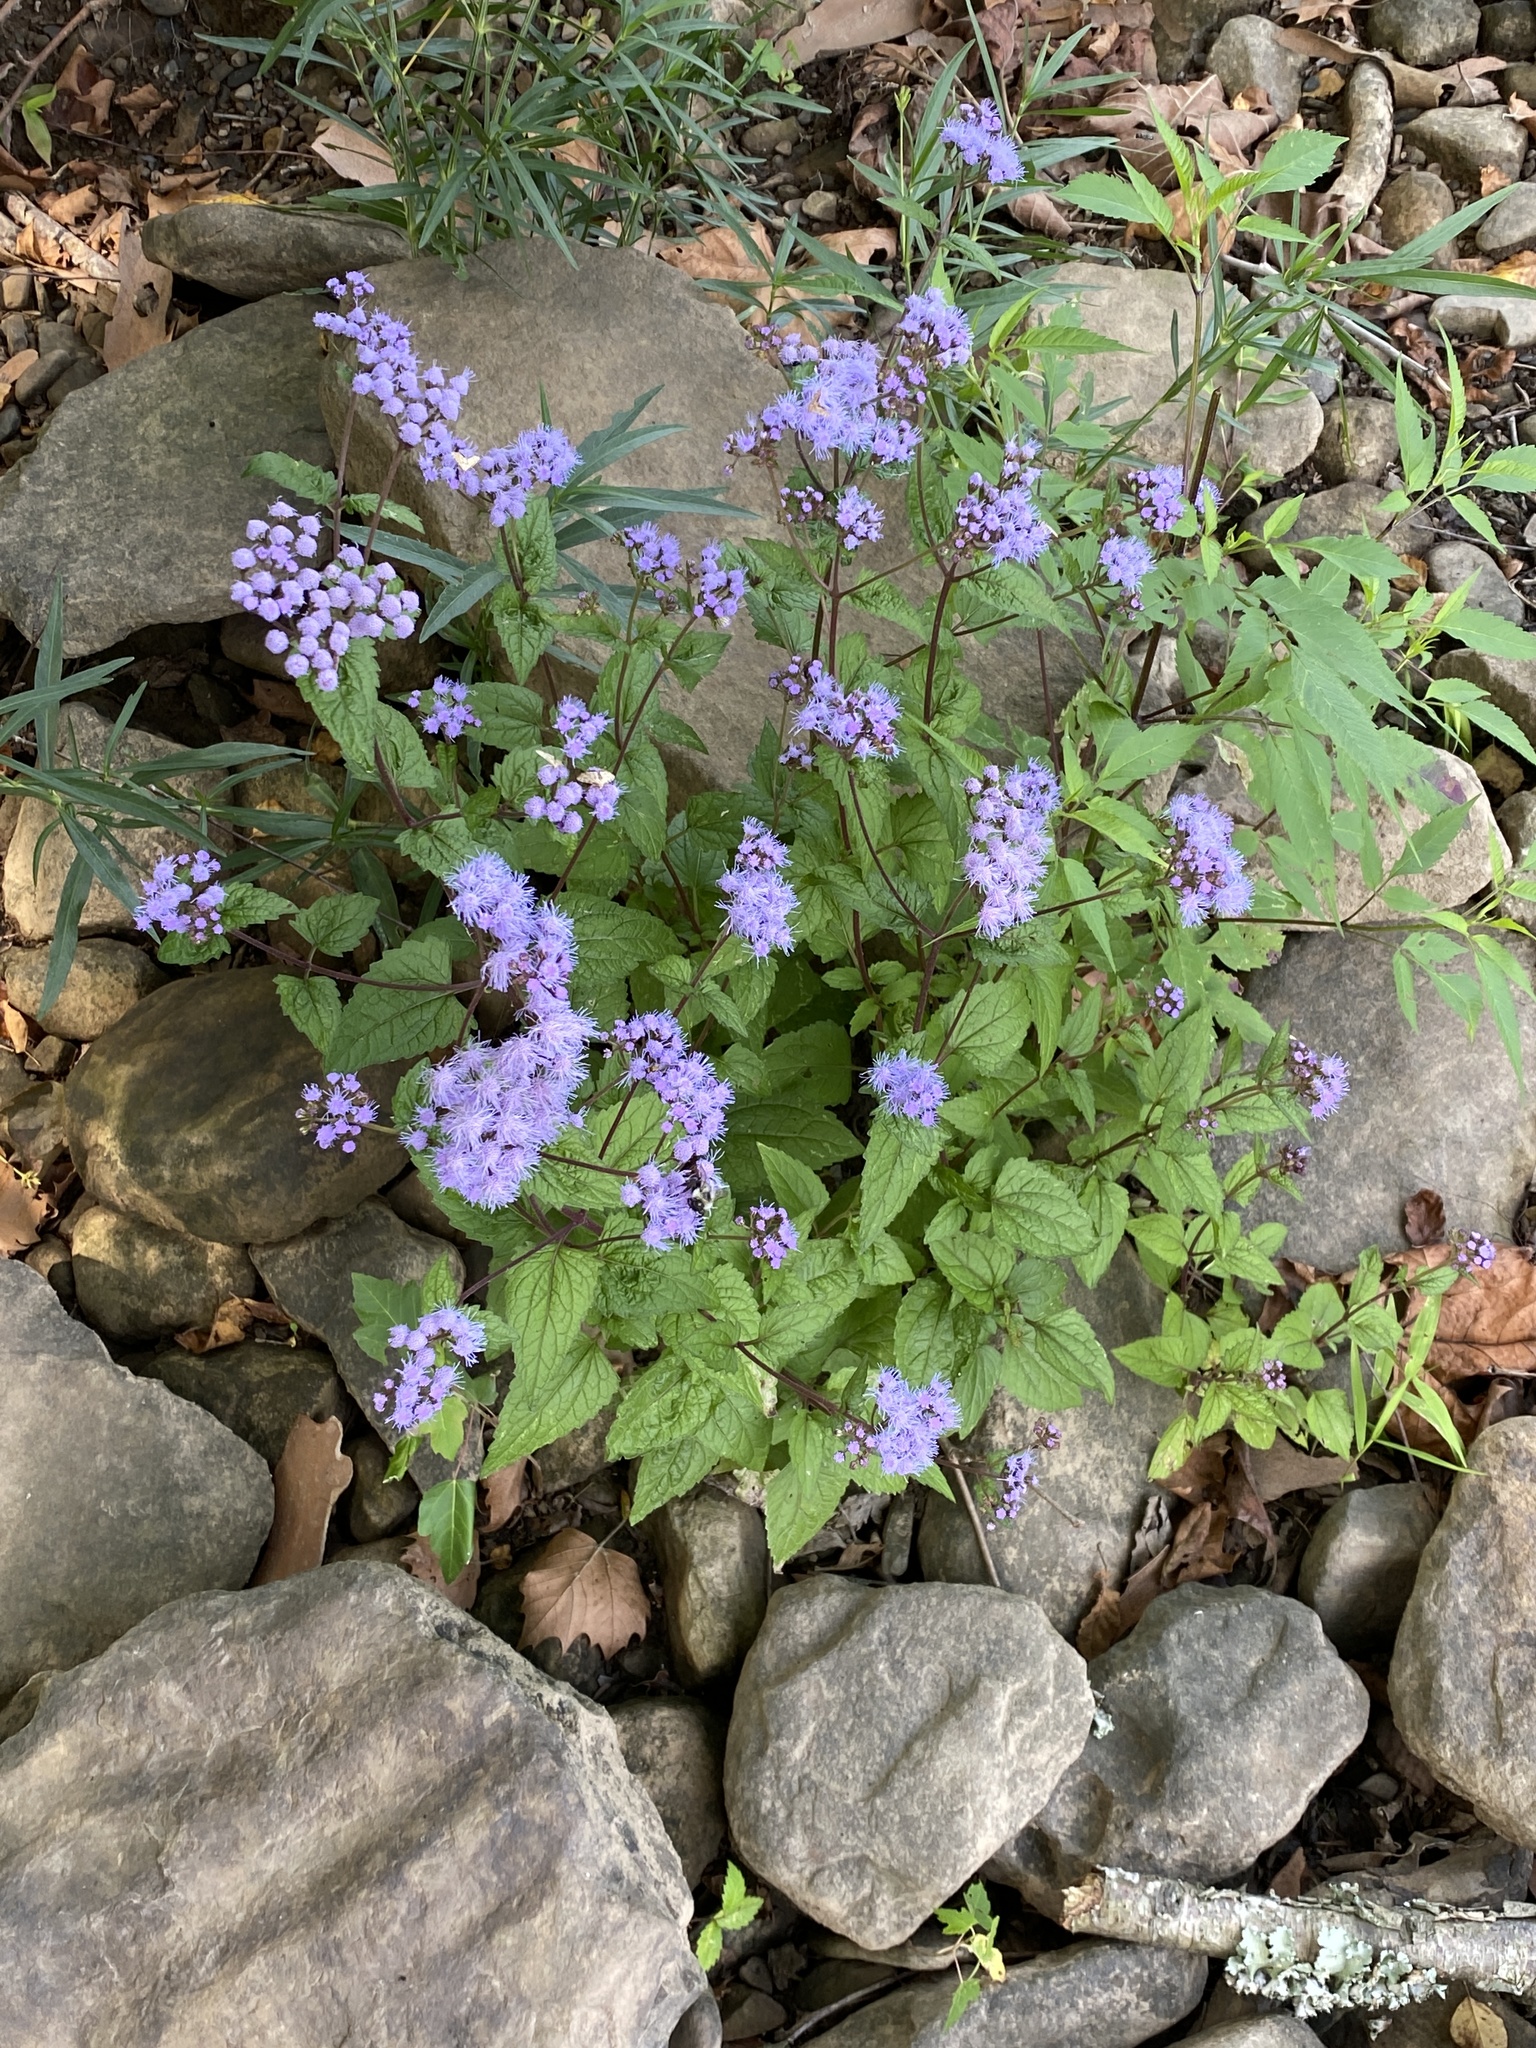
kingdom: Plantae
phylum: Tracheophyta
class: Magnoliopsida
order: Asterales
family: Asteraceae
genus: Conoclinium
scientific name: Conoclinium coelestinum
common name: Blue mistflower
